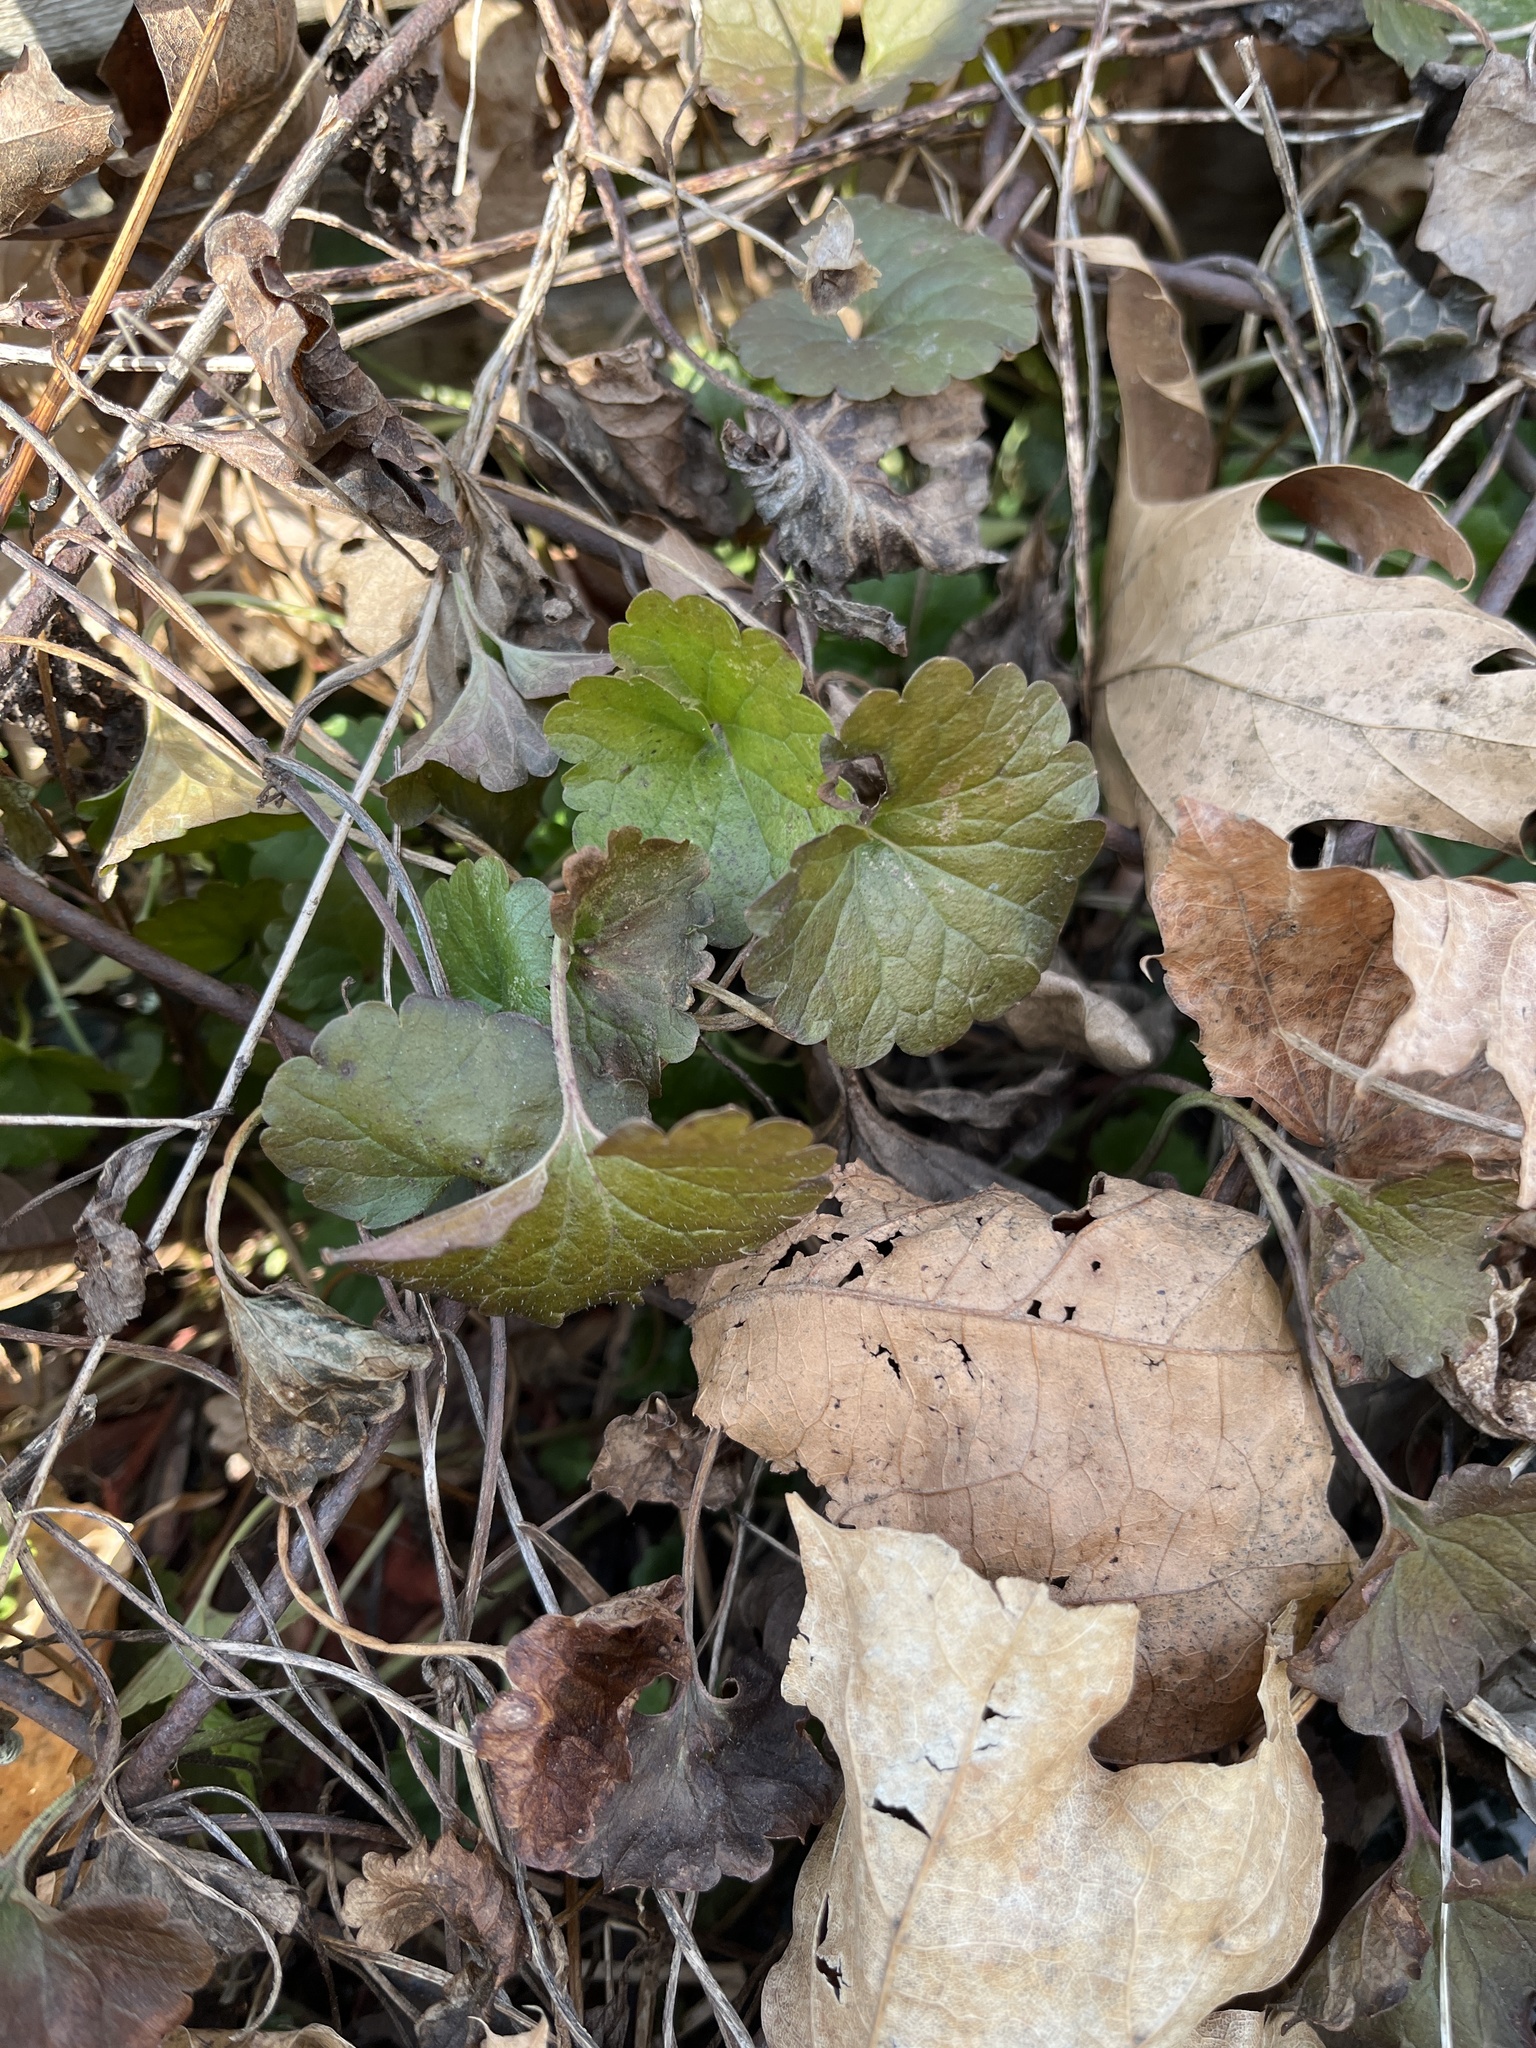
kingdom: Plantae
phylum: Tracheophyta
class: Magnoliopsida
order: Lamiales
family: Lamiaceae
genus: Glechoma
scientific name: Glechoma hederacea
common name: Ground ivy
